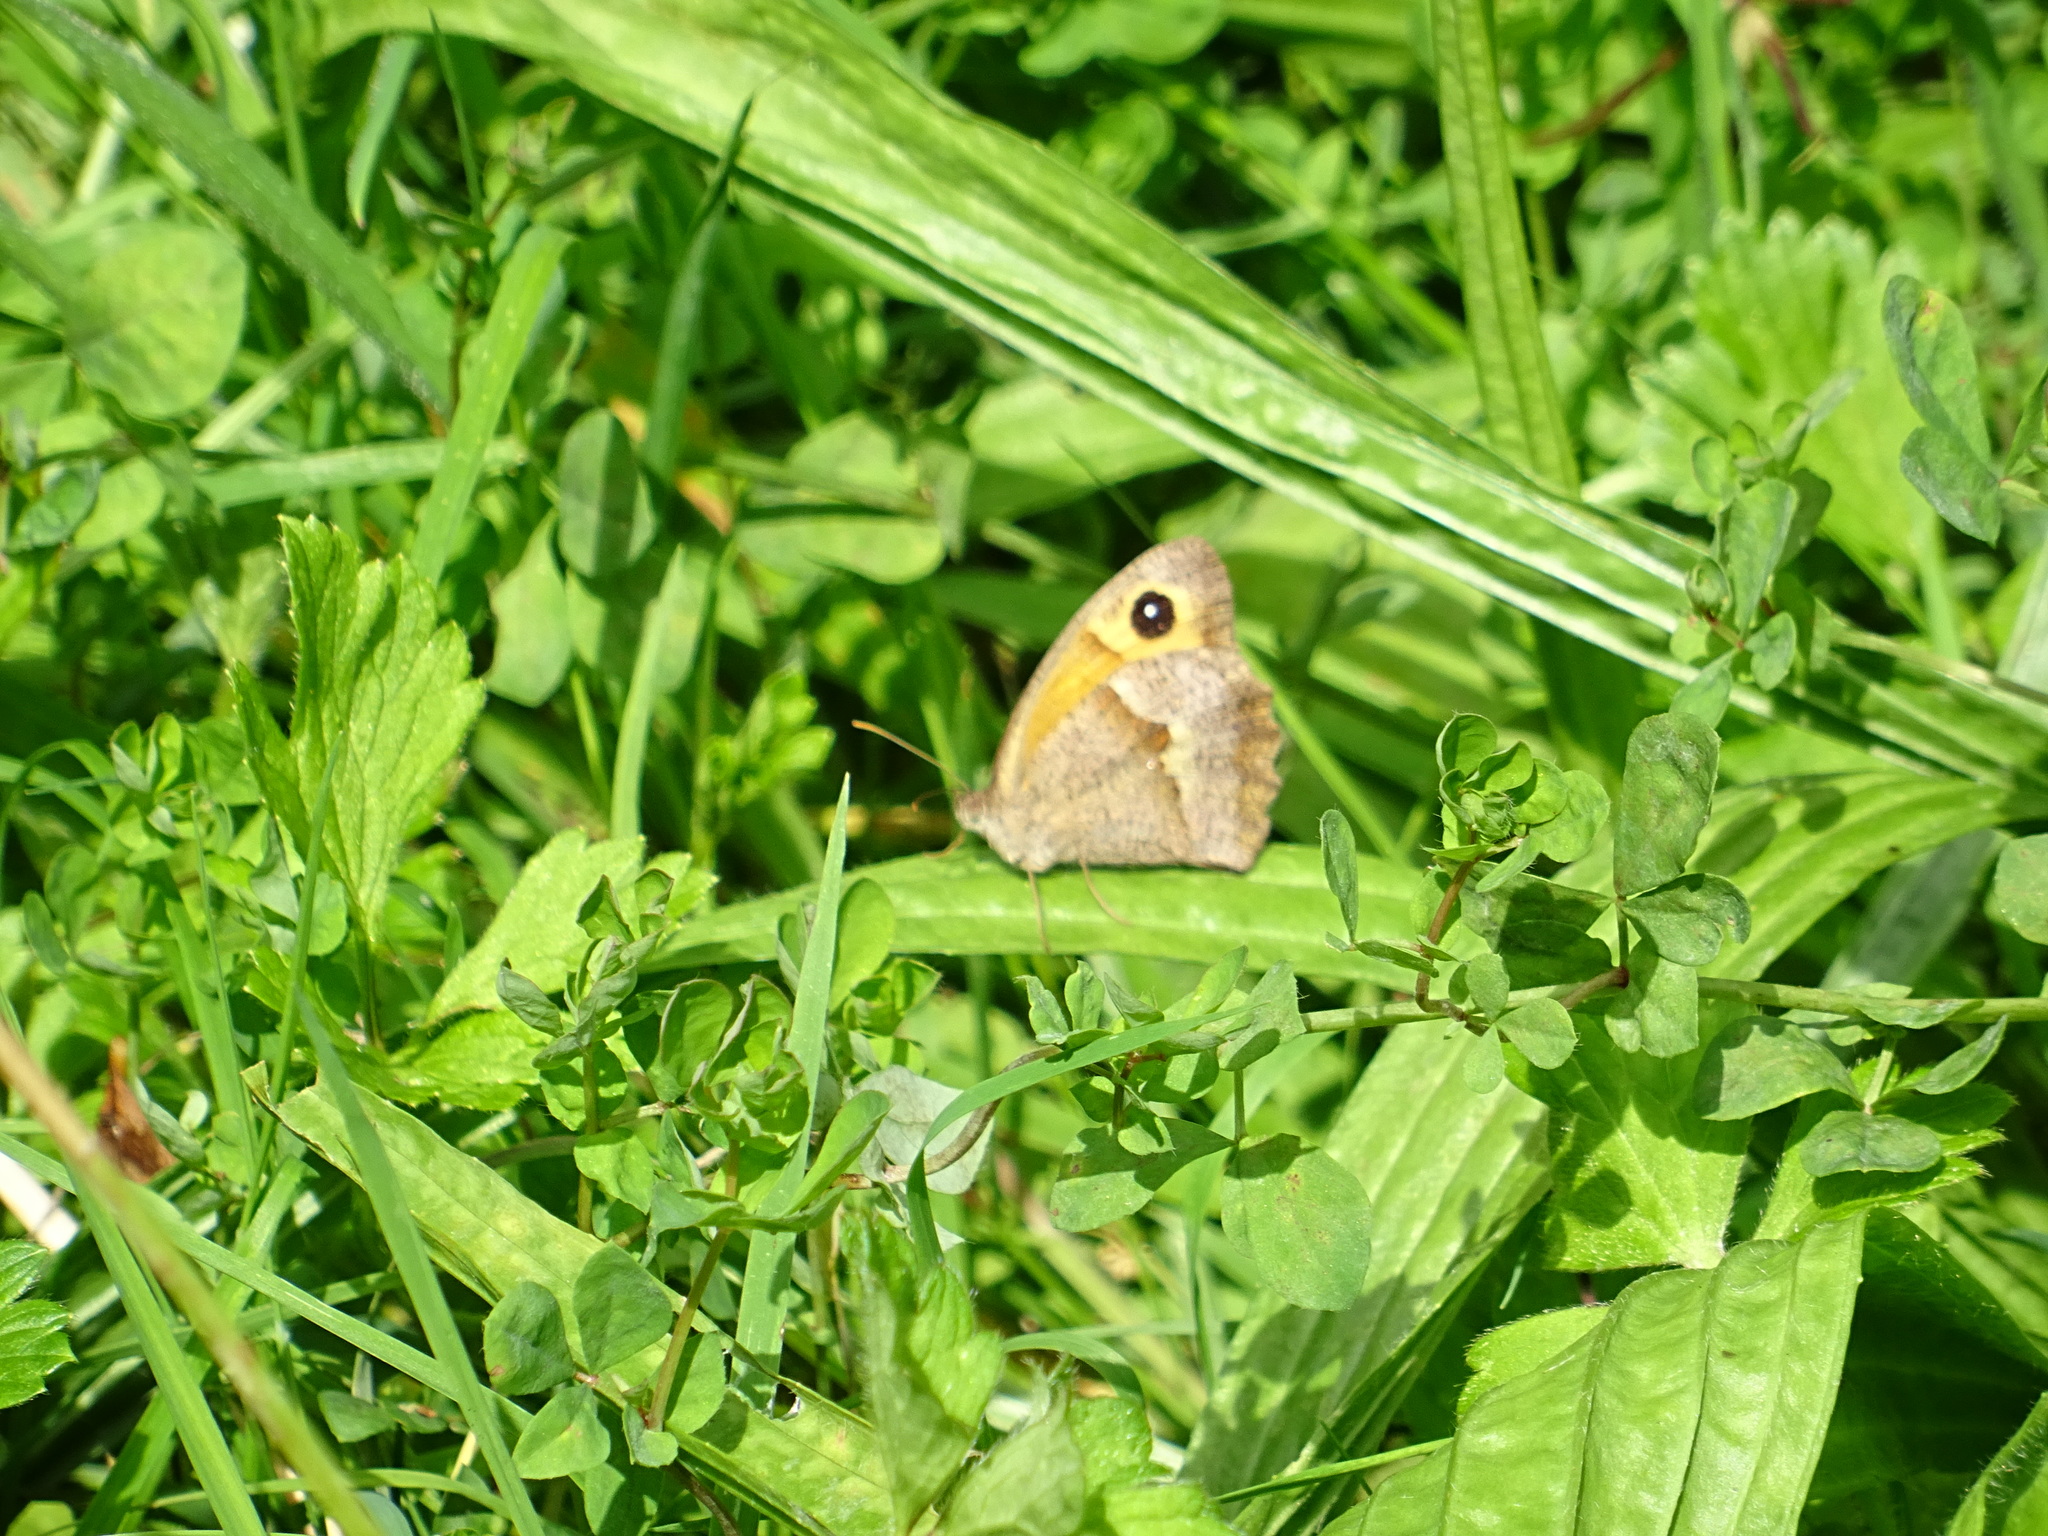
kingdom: Animalia
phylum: Arthropoda
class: Insecta
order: Lepidoptera
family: Nymphalidae
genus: Maniola
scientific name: Maniola jurtina
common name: Meadow brown
